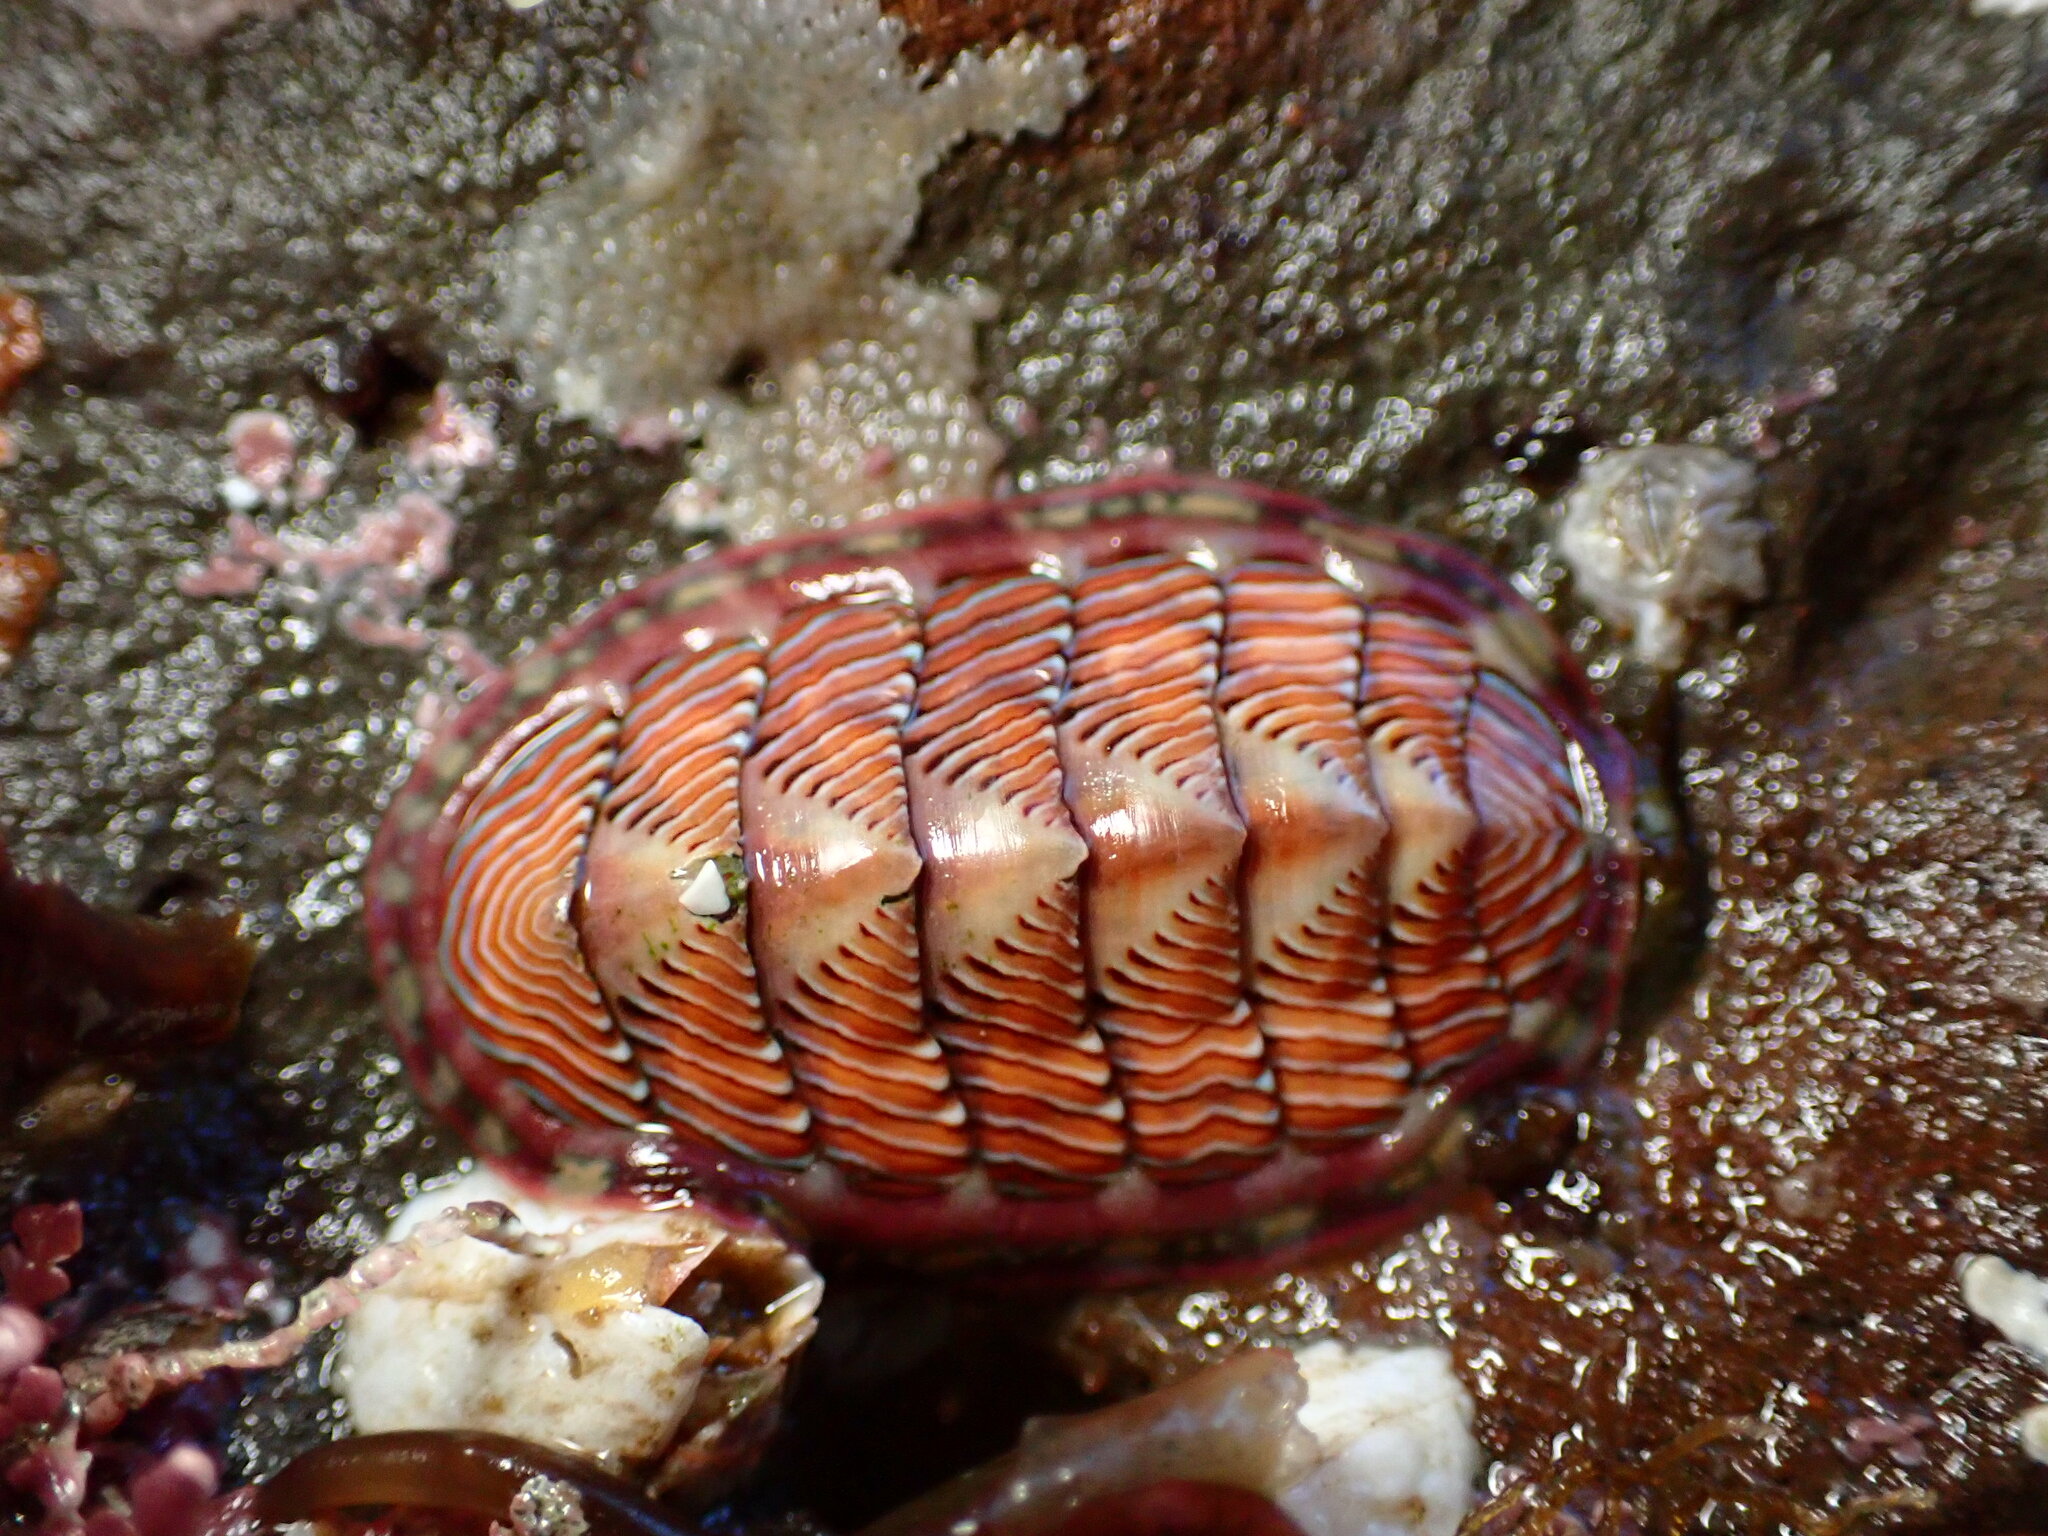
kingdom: Animalia
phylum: Mollusca
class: Polyplacophora
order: Chitonida
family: Tonicellidae
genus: Tonicella
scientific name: Tonicella lineata
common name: Lined chiton
